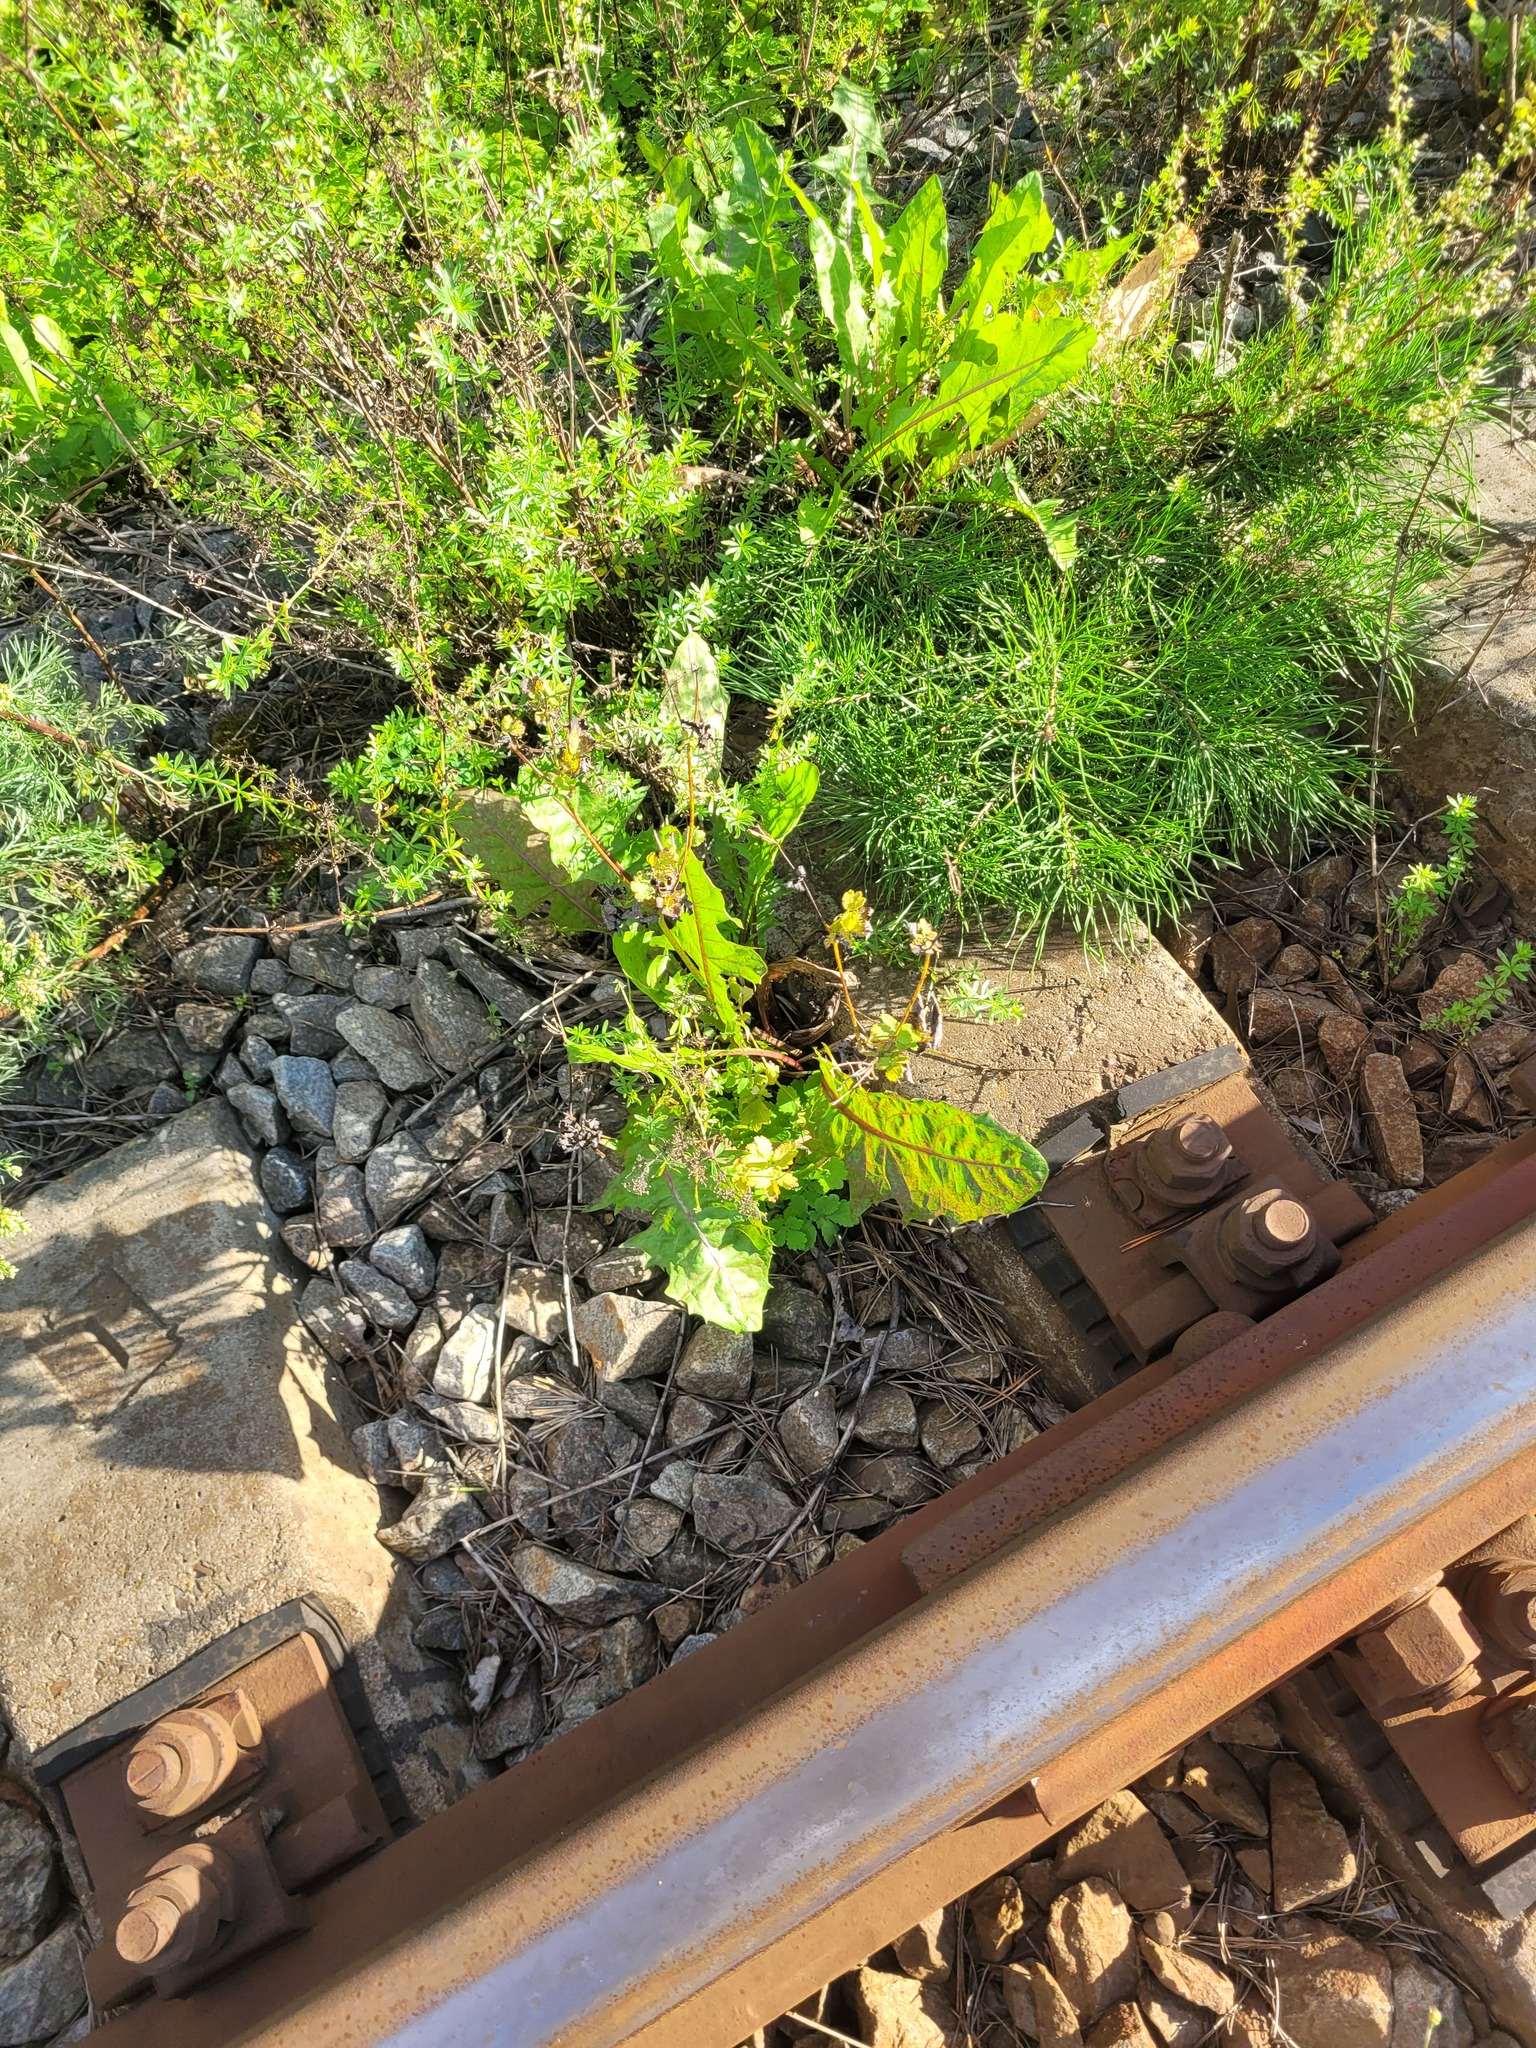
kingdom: Plantae
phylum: Tracheophyta
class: Magnoliopsida
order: Asterales
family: Asteraceae
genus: Taraxacum
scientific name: Taraxacum officinale
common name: Common dandelion
